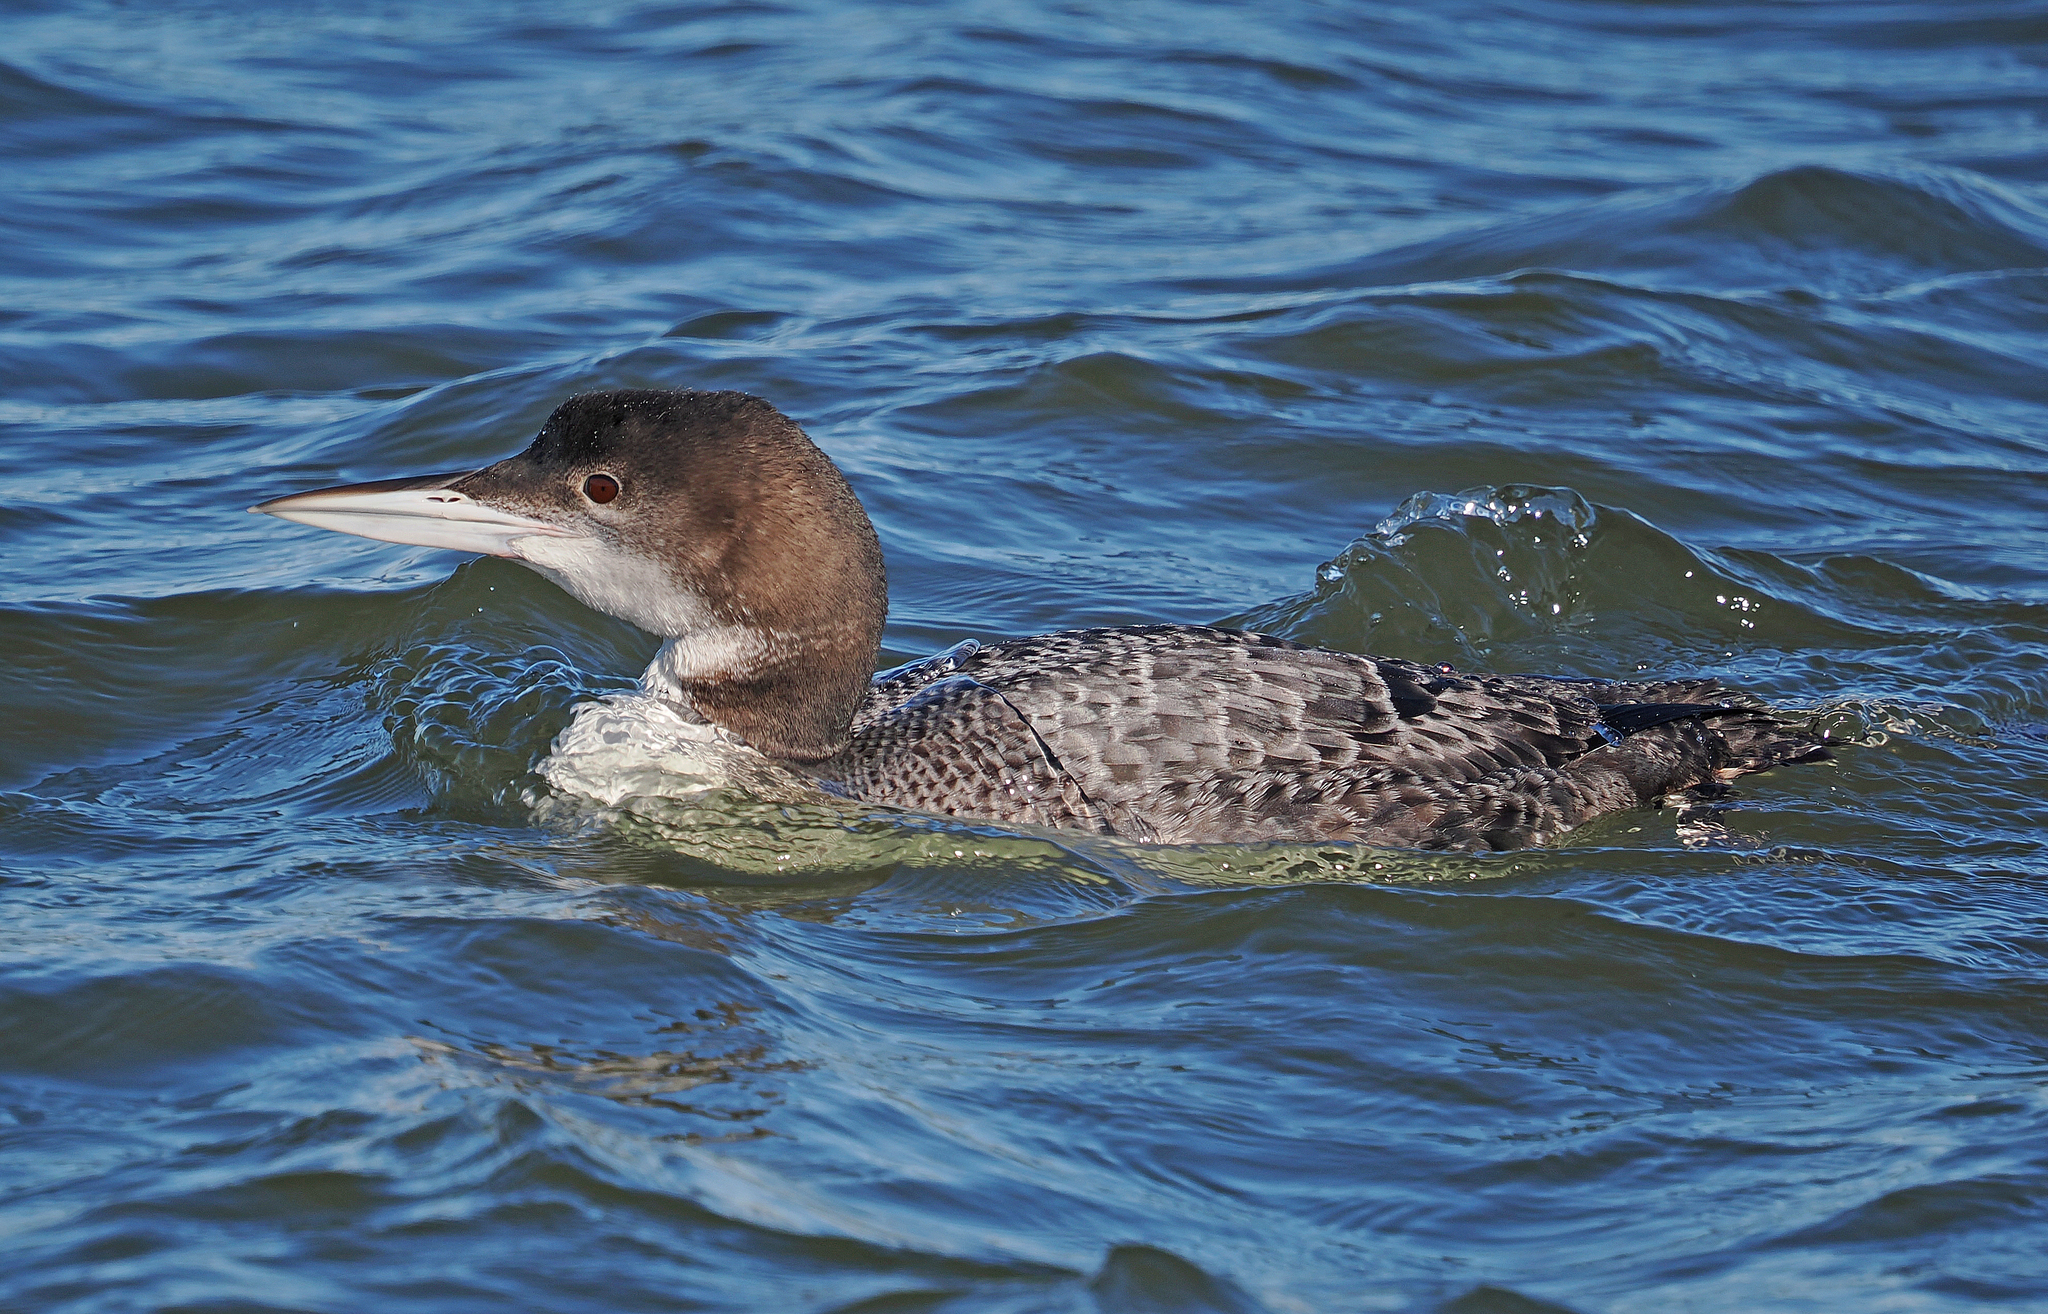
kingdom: Animalia
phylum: Chordata
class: Aves
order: Gaviiformes
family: Gaviidae
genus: Gavia
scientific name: Gavia immer
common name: Common loon
